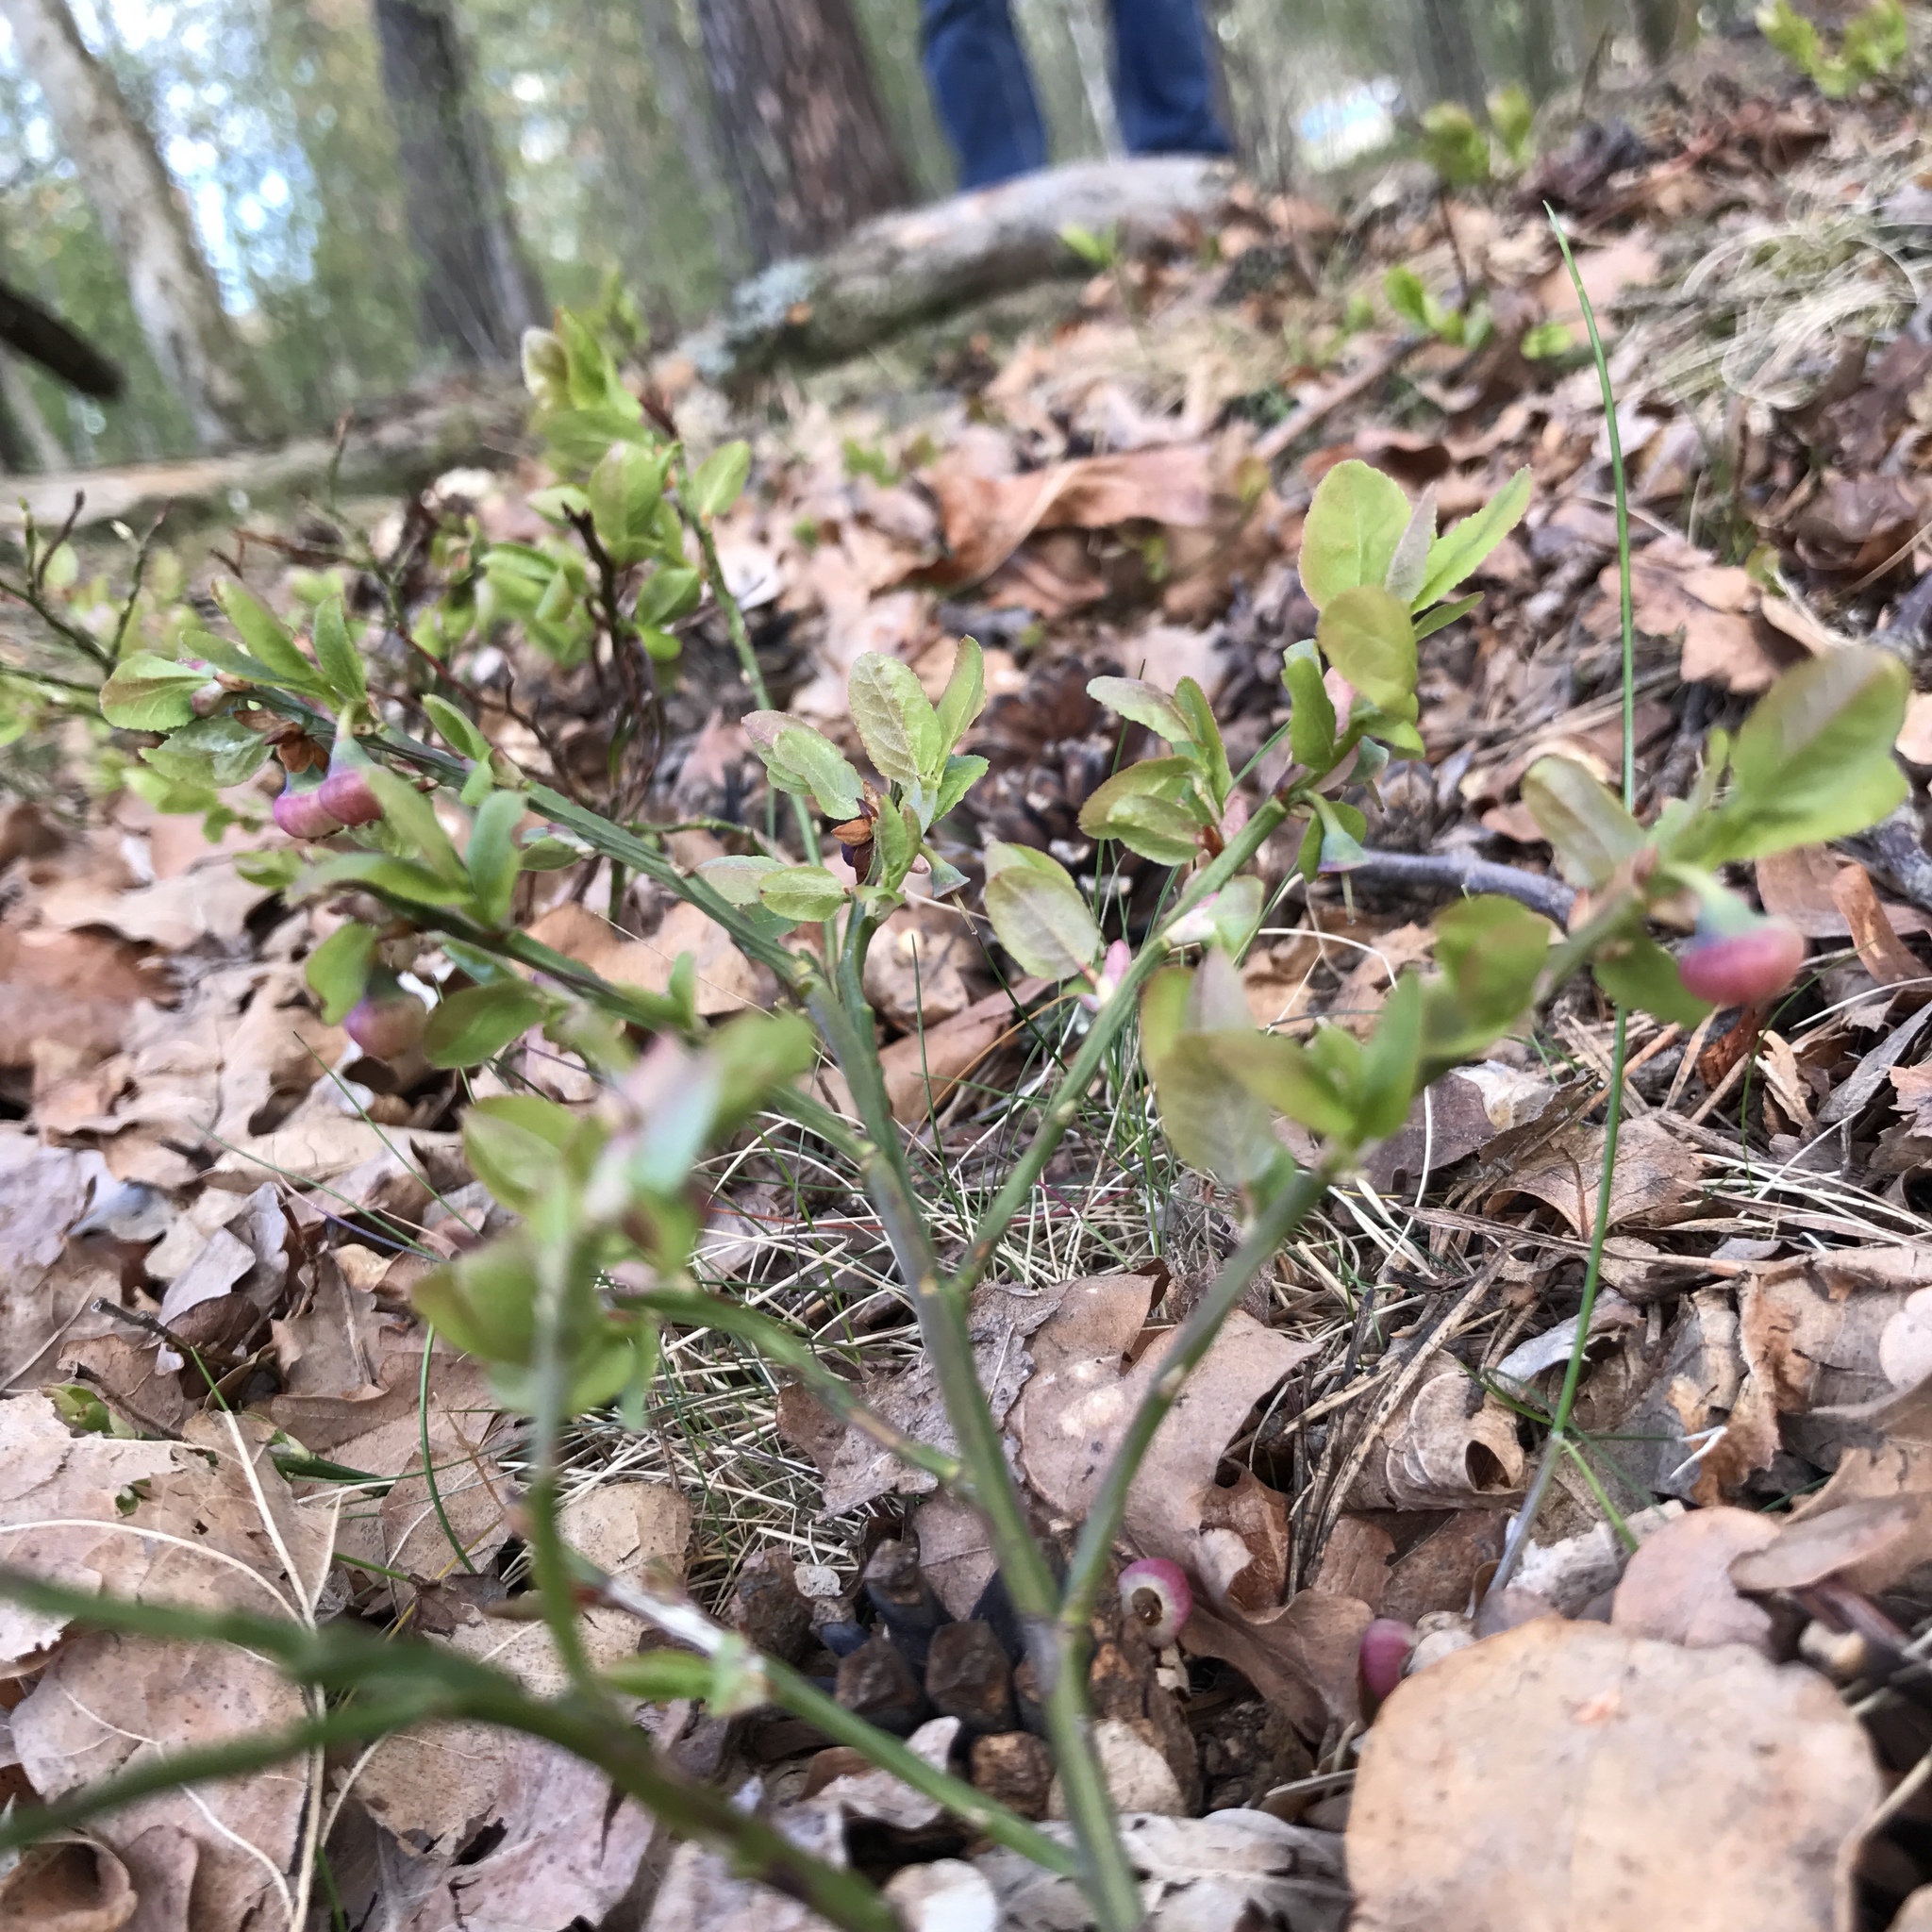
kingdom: Plantae
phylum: Tracheophyta
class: Magnoliopsida
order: Ericales
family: Ericaceae
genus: Vaccinium
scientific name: Vaccinium myrtillus
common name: Bilberry
